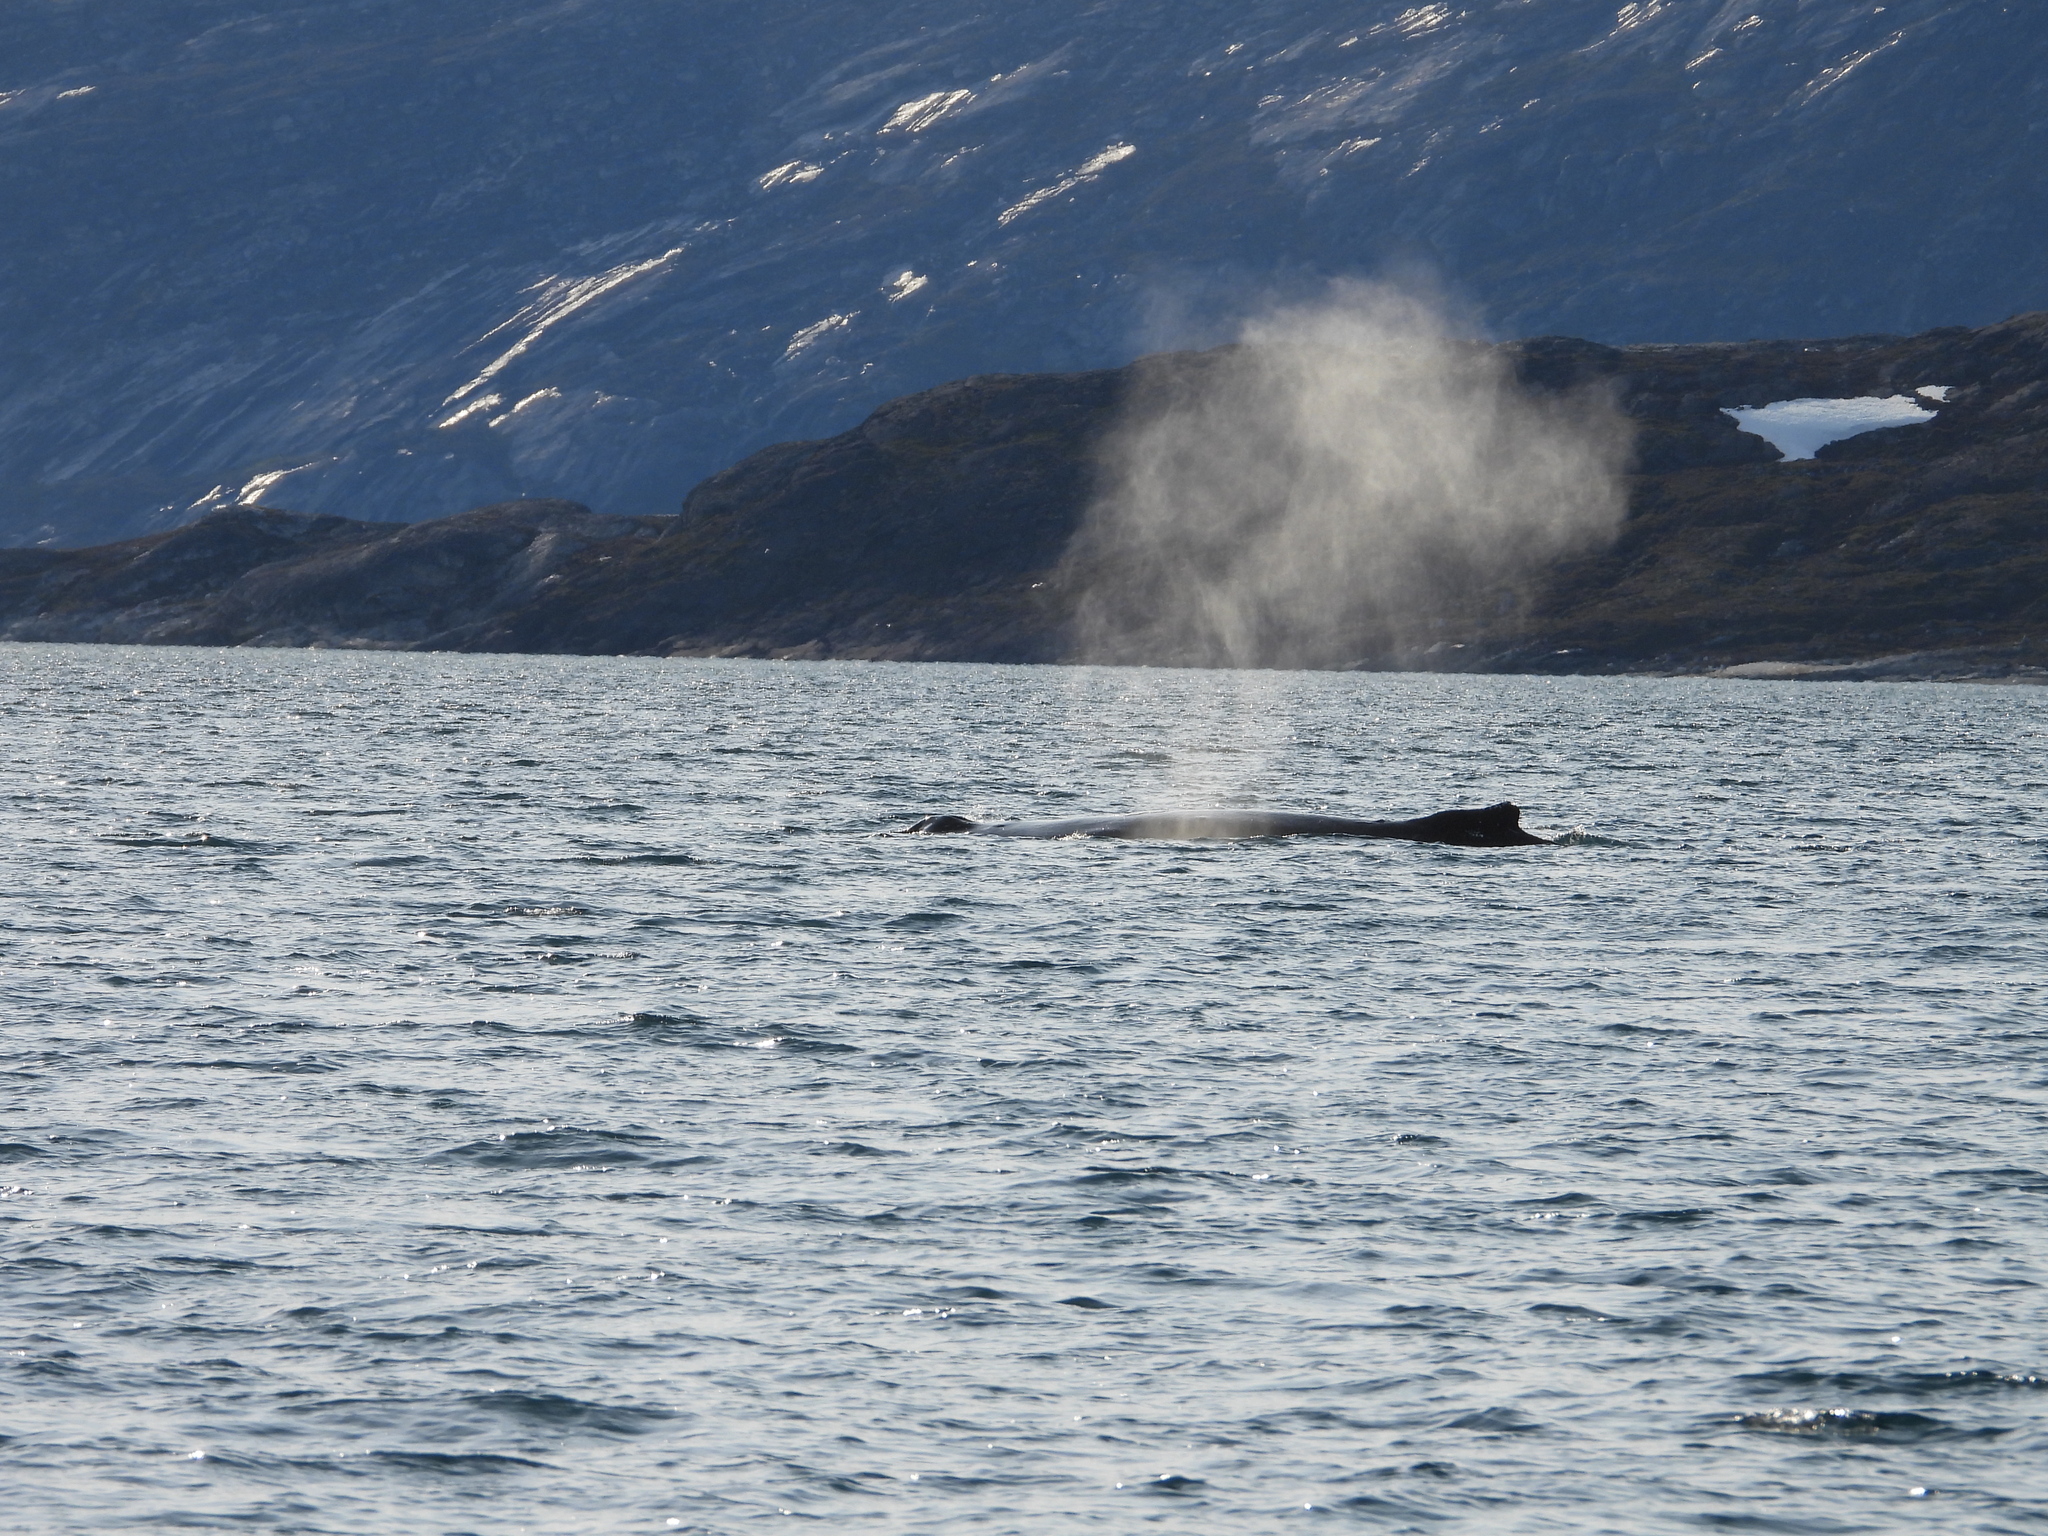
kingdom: Animalia
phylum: Chordata
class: Mammalia
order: Cetacea
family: Balaenopteridae
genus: Megaptera
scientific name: Megaptera novaeangliae
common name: Humpback whale
